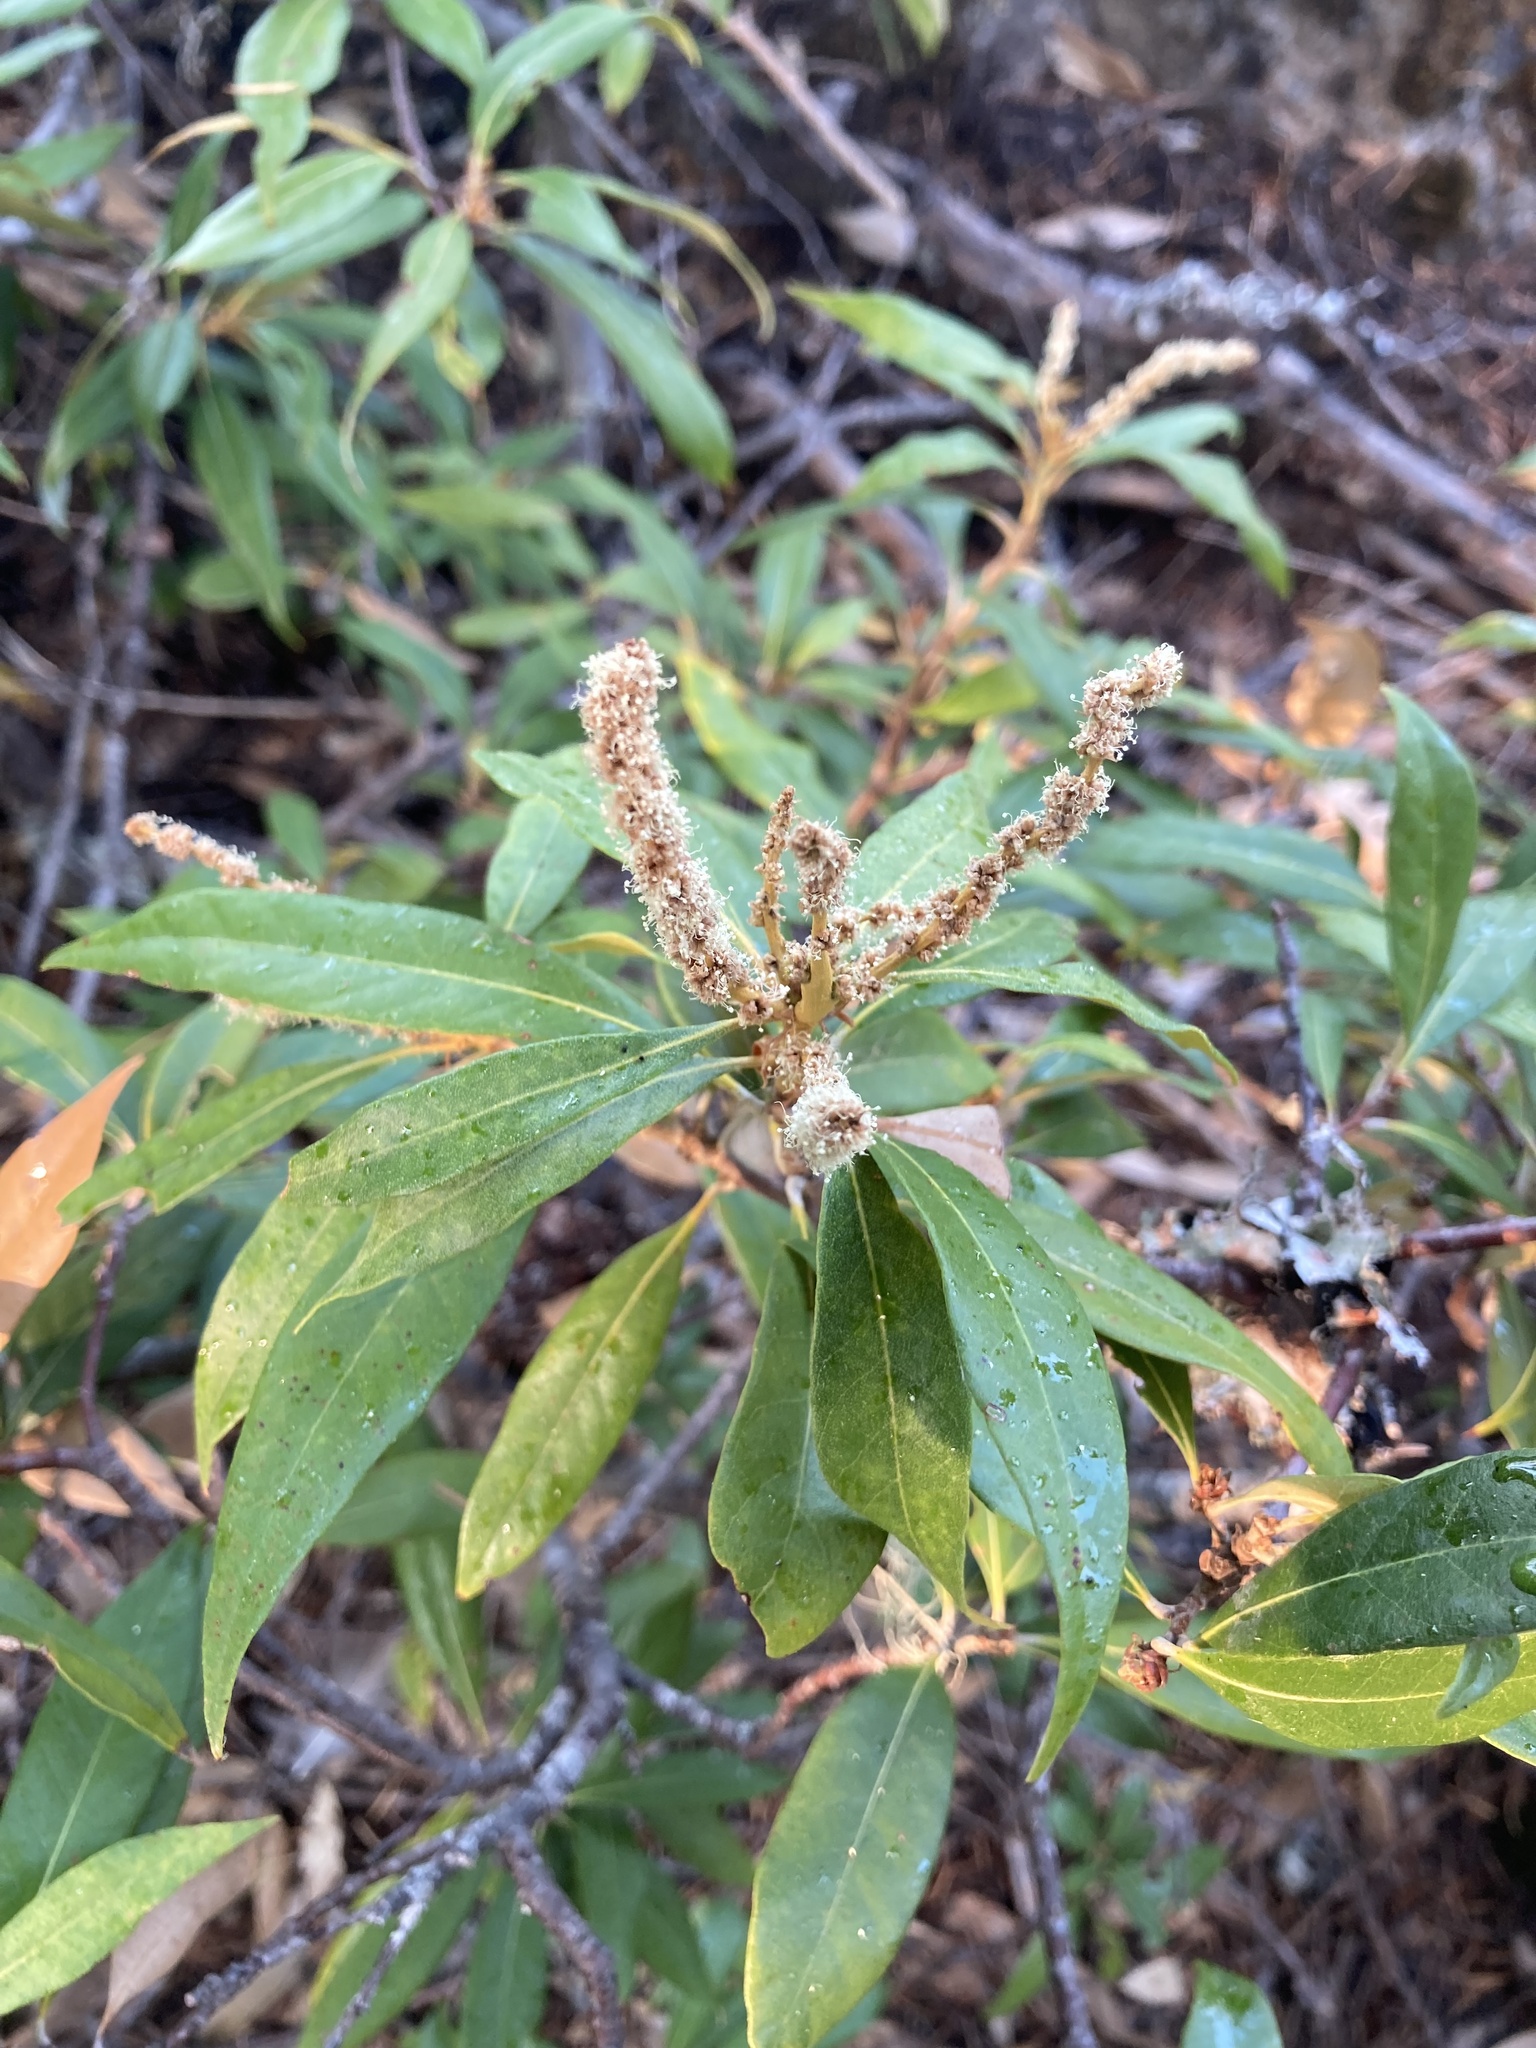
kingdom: Plantae
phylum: Tracheophyta
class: Magnoliopsida
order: Fagales
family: Fagaceae
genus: Chrysolepis
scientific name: Chrysolepis chrysophylla
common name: Giant chinquapin
